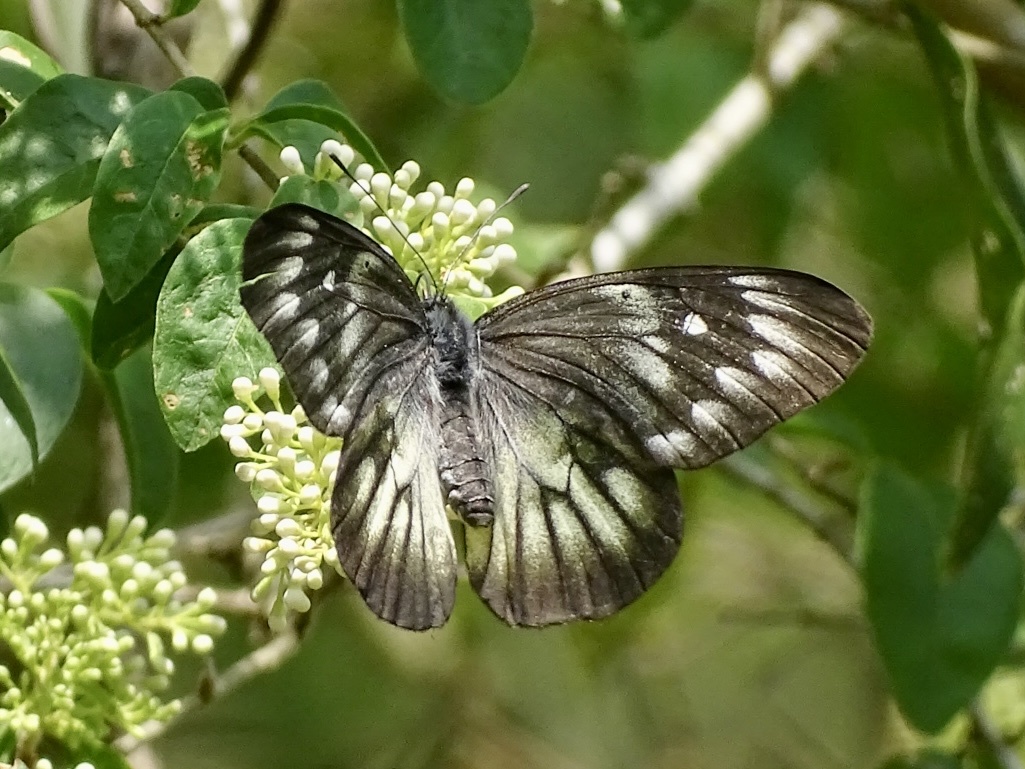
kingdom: Animalia
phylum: Arthropoda
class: Insecta
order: Lepidoptera
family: Pieridae
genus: Delias
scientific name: Delias pasithoe
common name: Red-base jezebel
